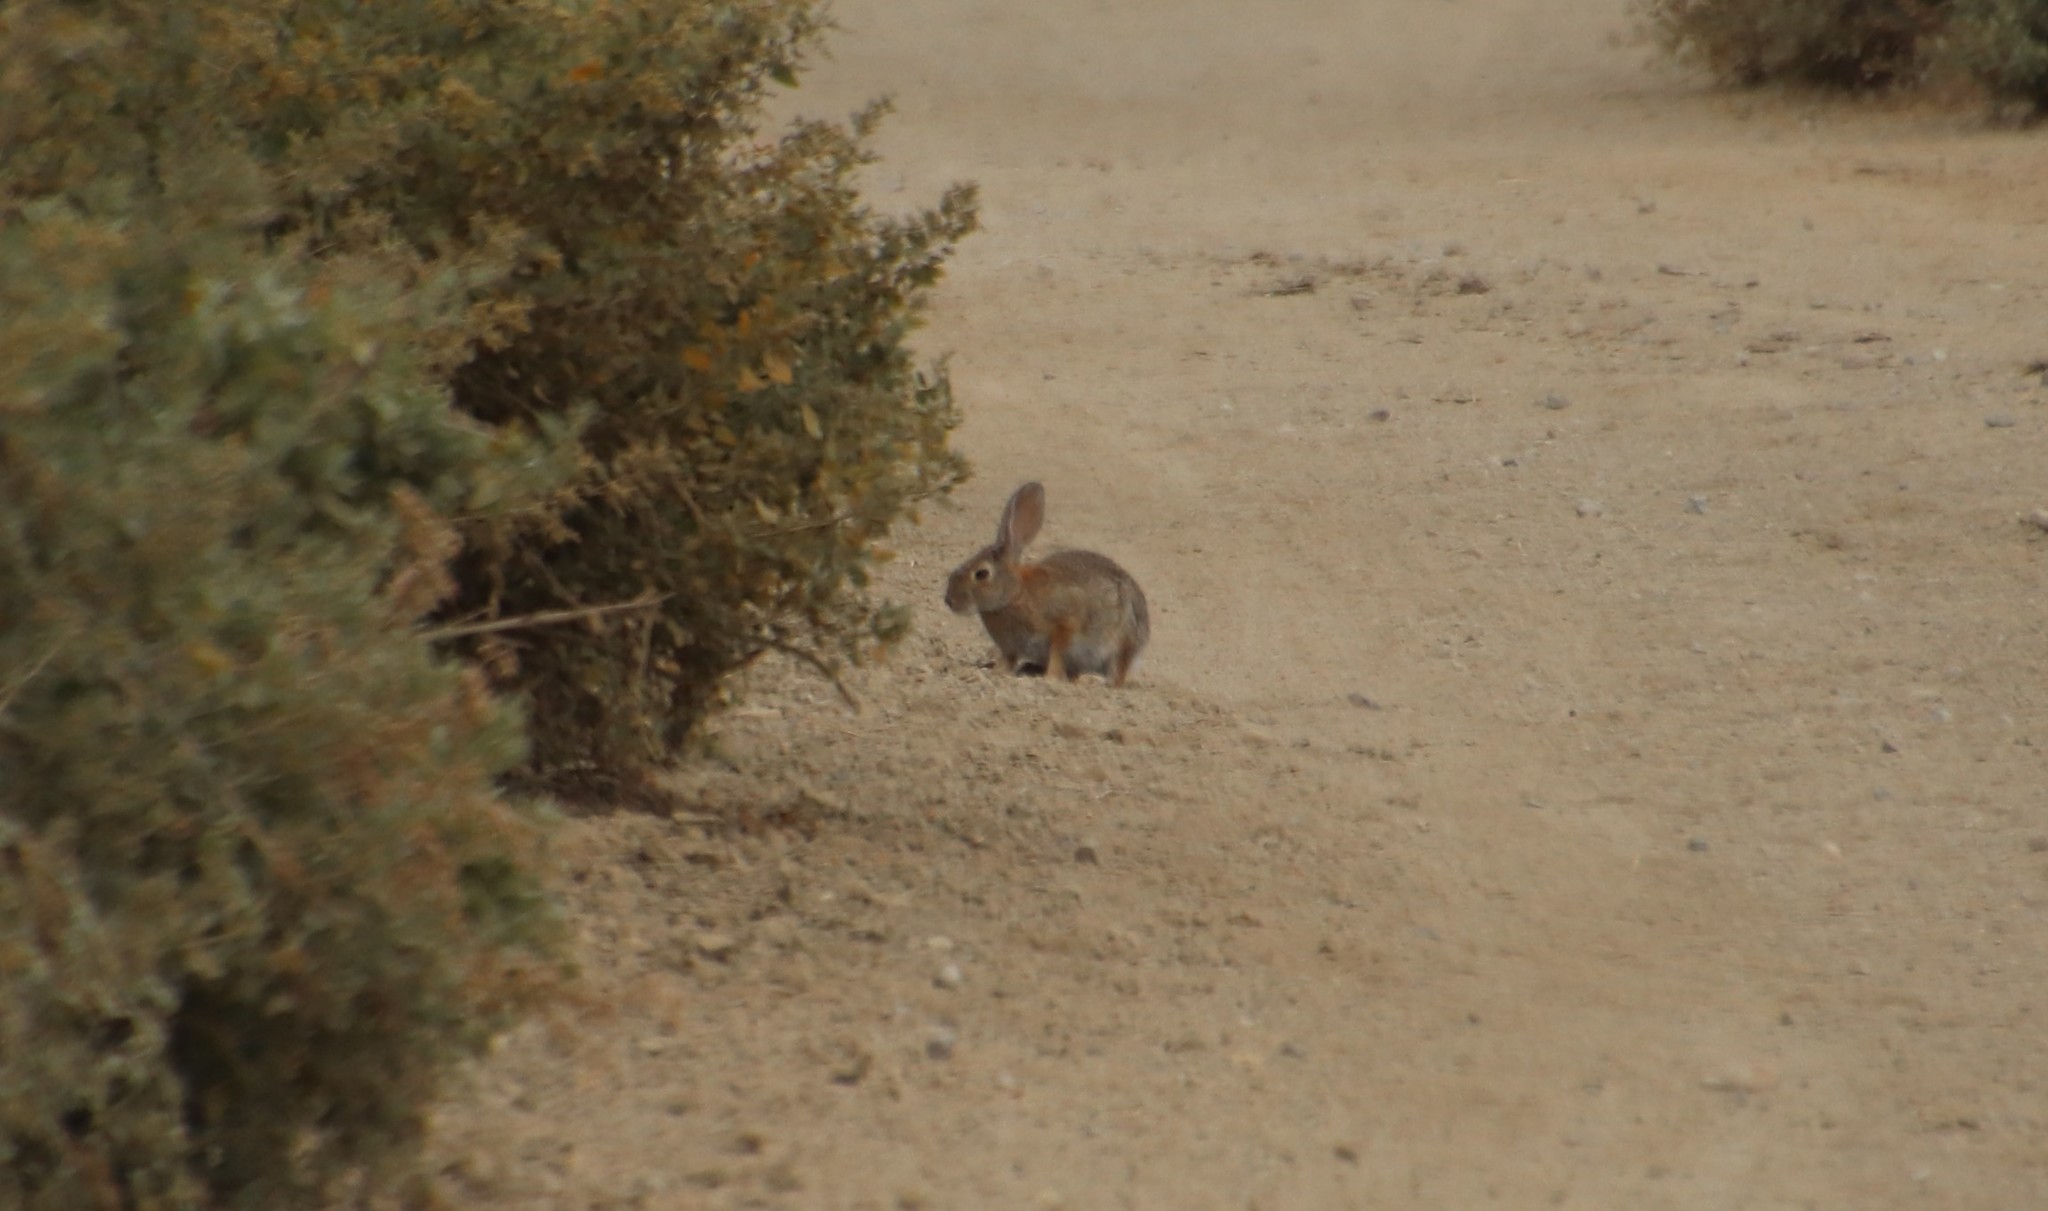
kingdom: Animalia
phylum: Chordata
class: Mammalia
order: Lagomorpha
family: Leporidae
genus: Sylvilagus
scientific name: Sylvilagus audubonii
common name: Desert cottontail
